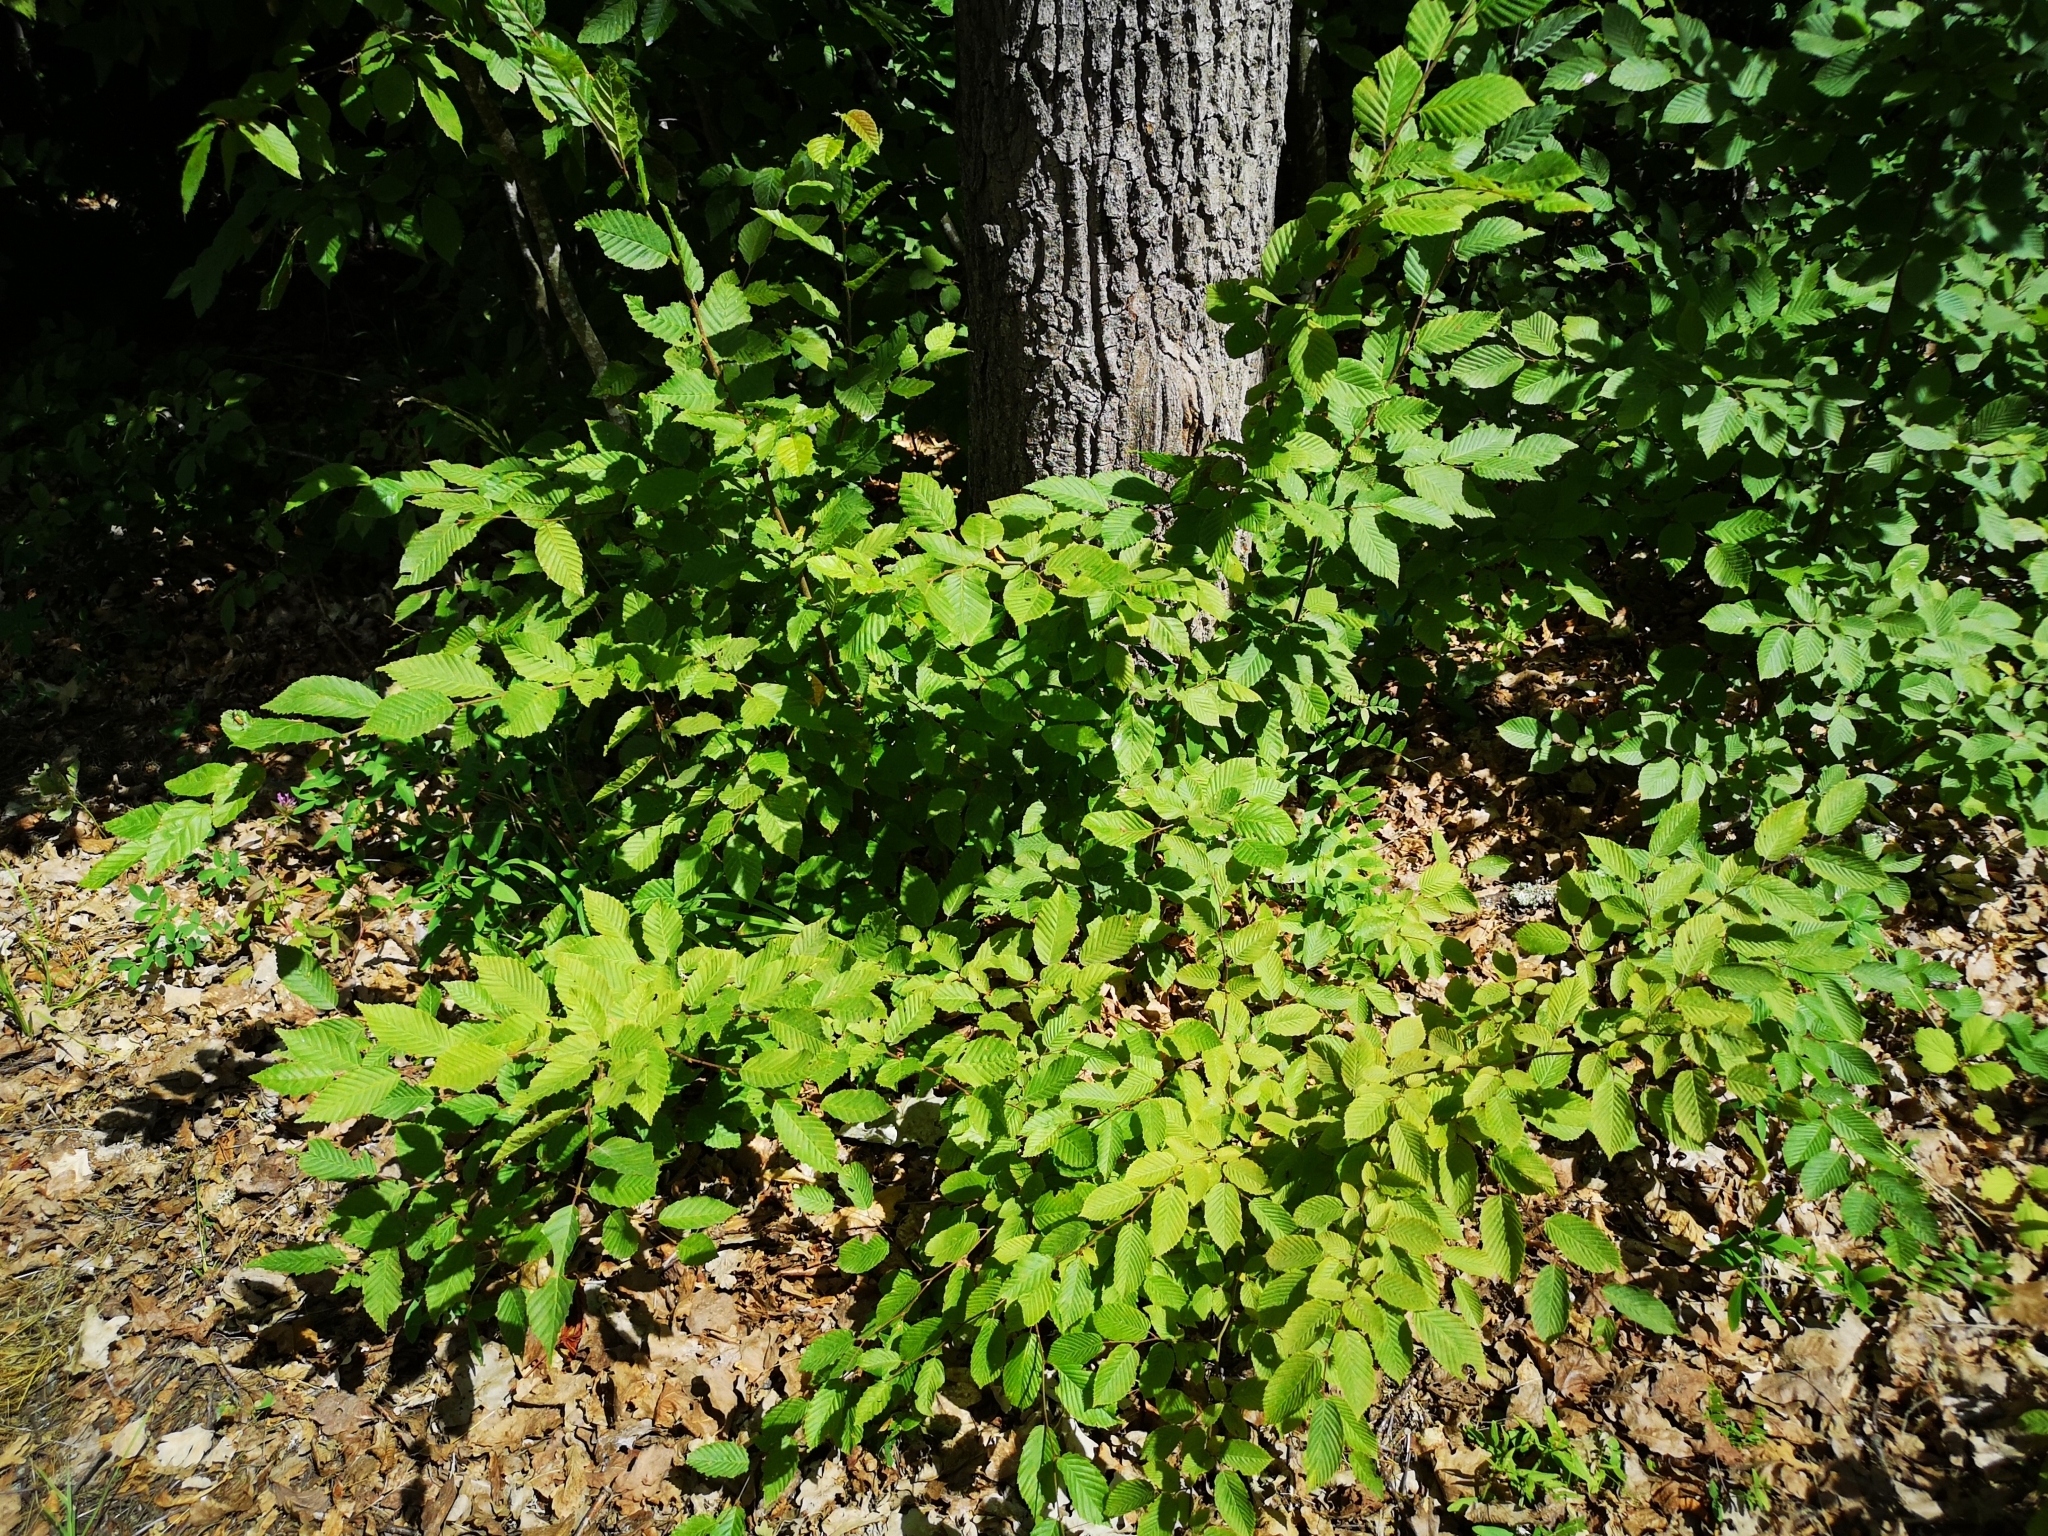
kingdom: Plantae
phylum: Tracheophyta
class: Magnoliopsida
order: Fagales
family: Betulaceae
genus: Carpinus
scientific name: Carpinus betulus
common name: Hornbeam
